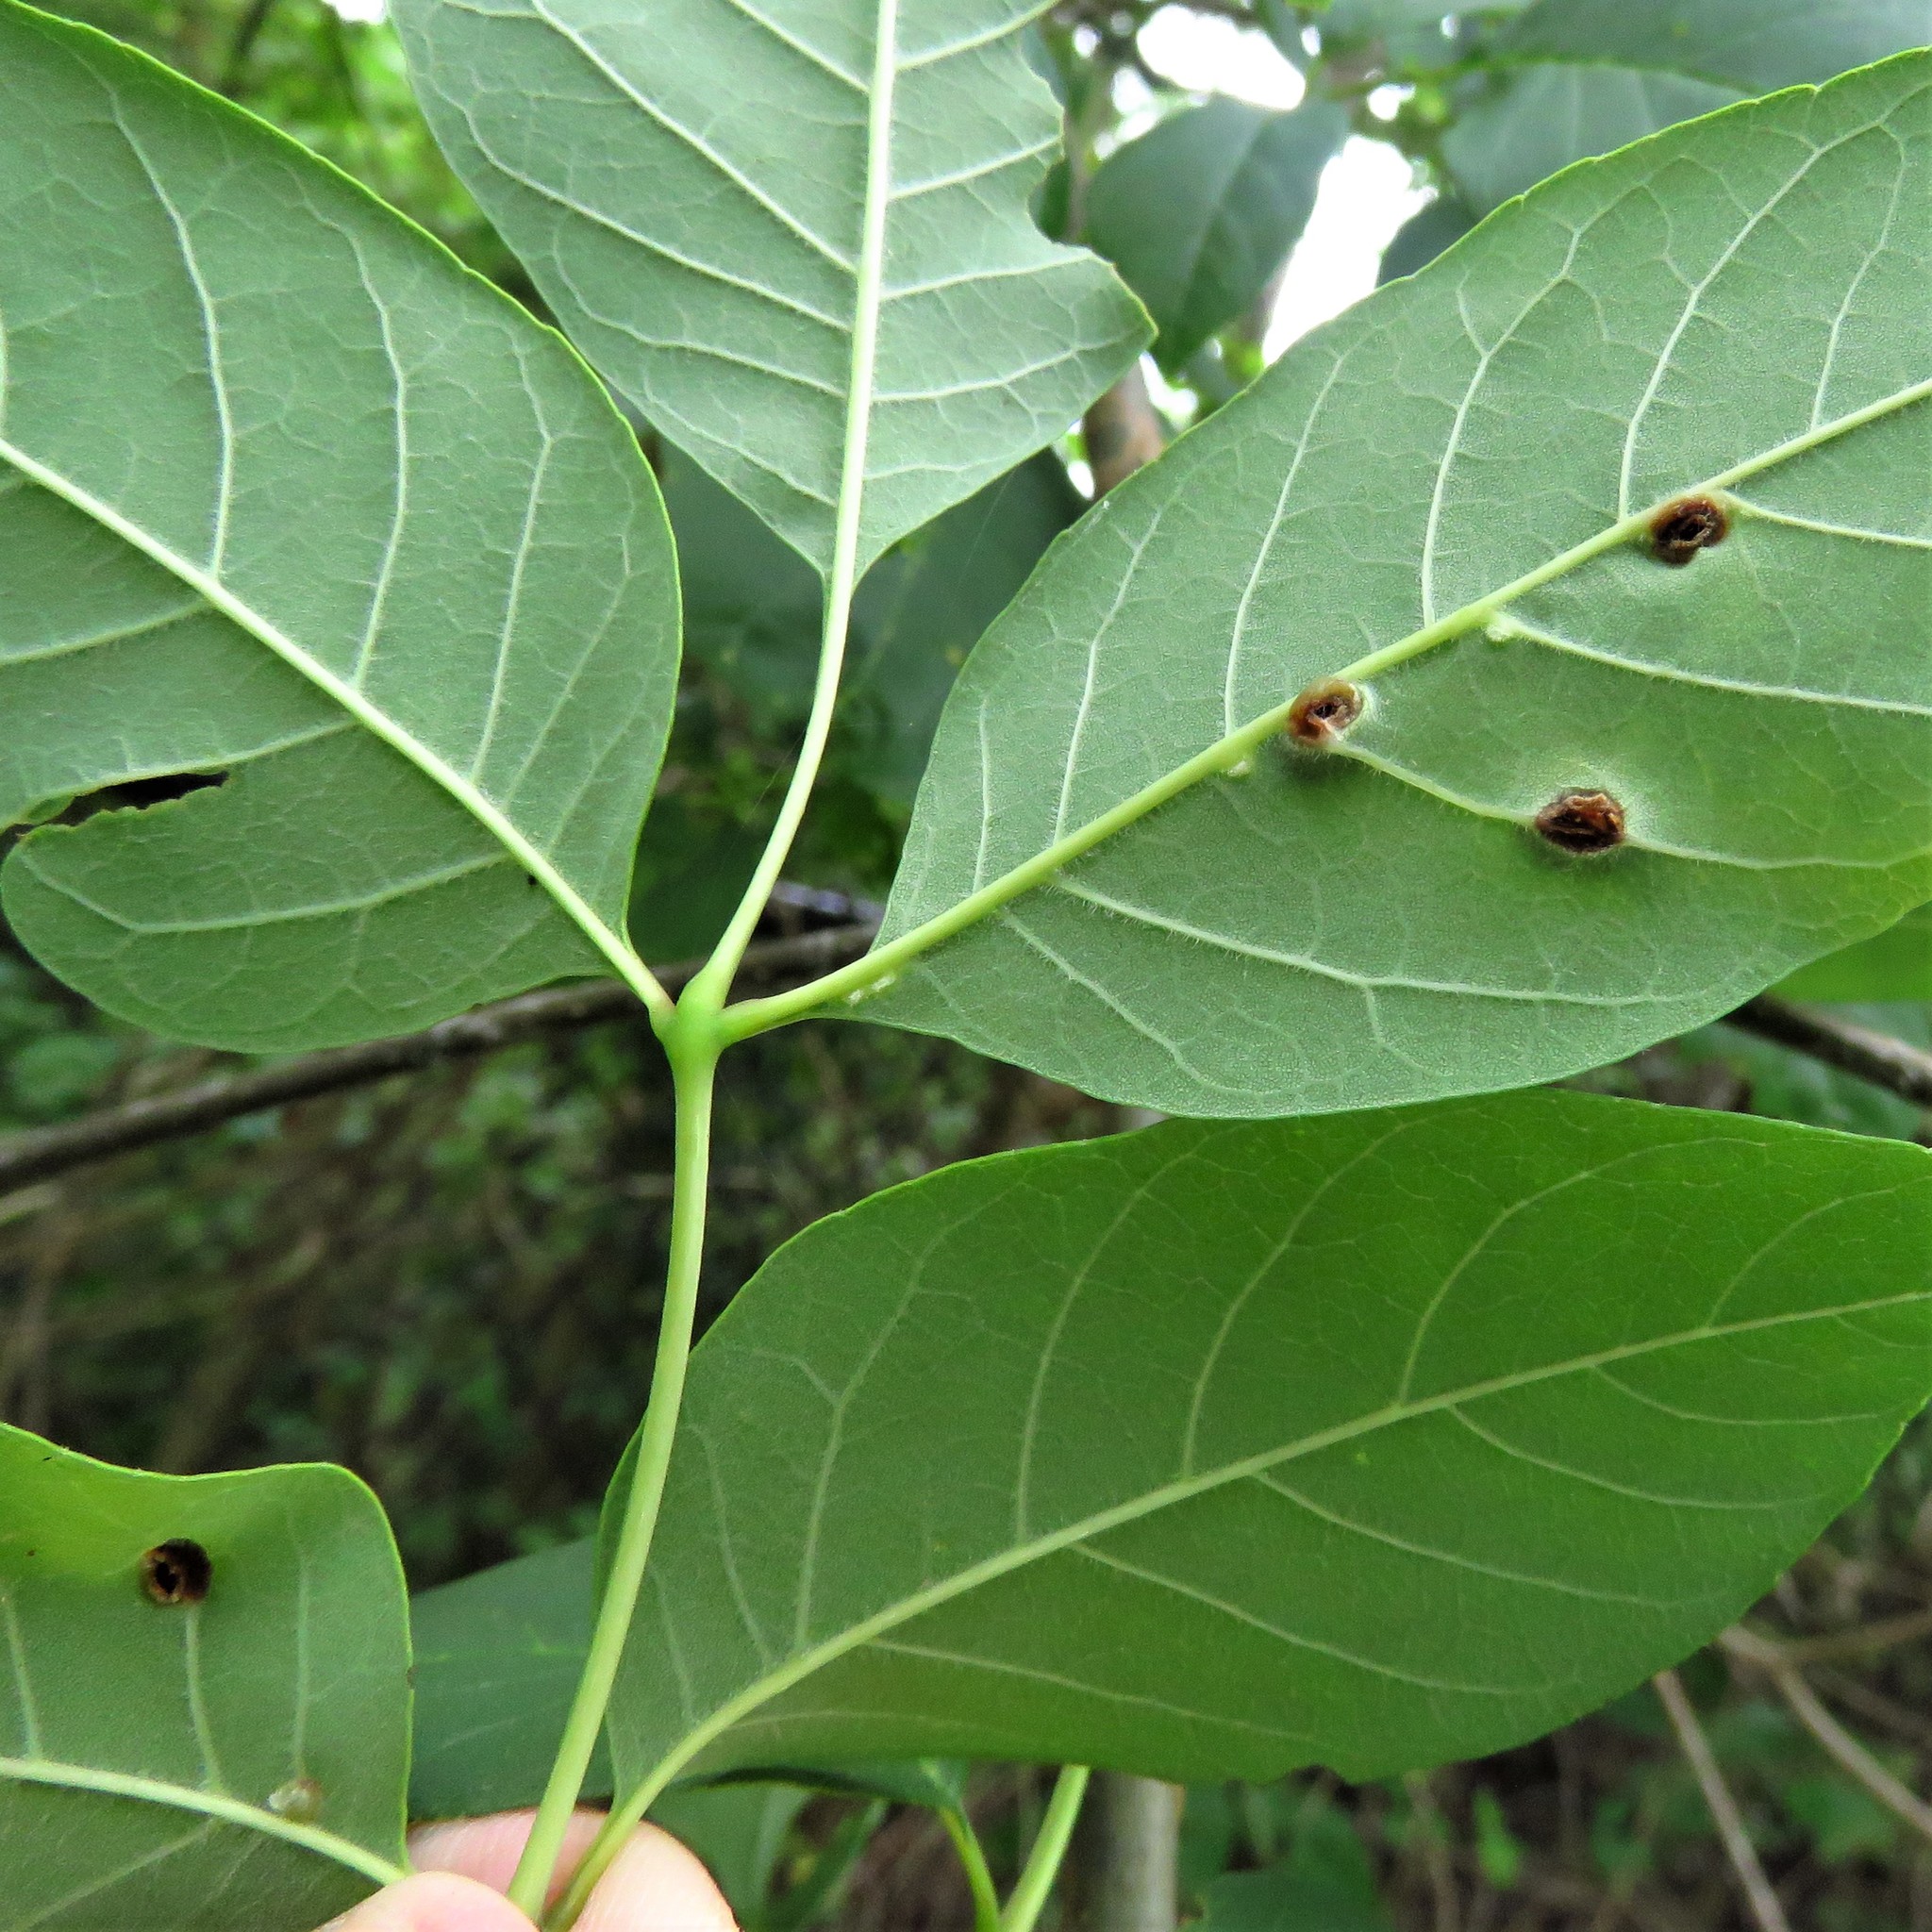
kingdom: Animalia
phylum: Arthropoda
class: Insecta
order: Diptera
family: Cecidomyiidae
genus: Dasineura
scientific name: Dasineura pellex
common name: Ash bullet gall midge
